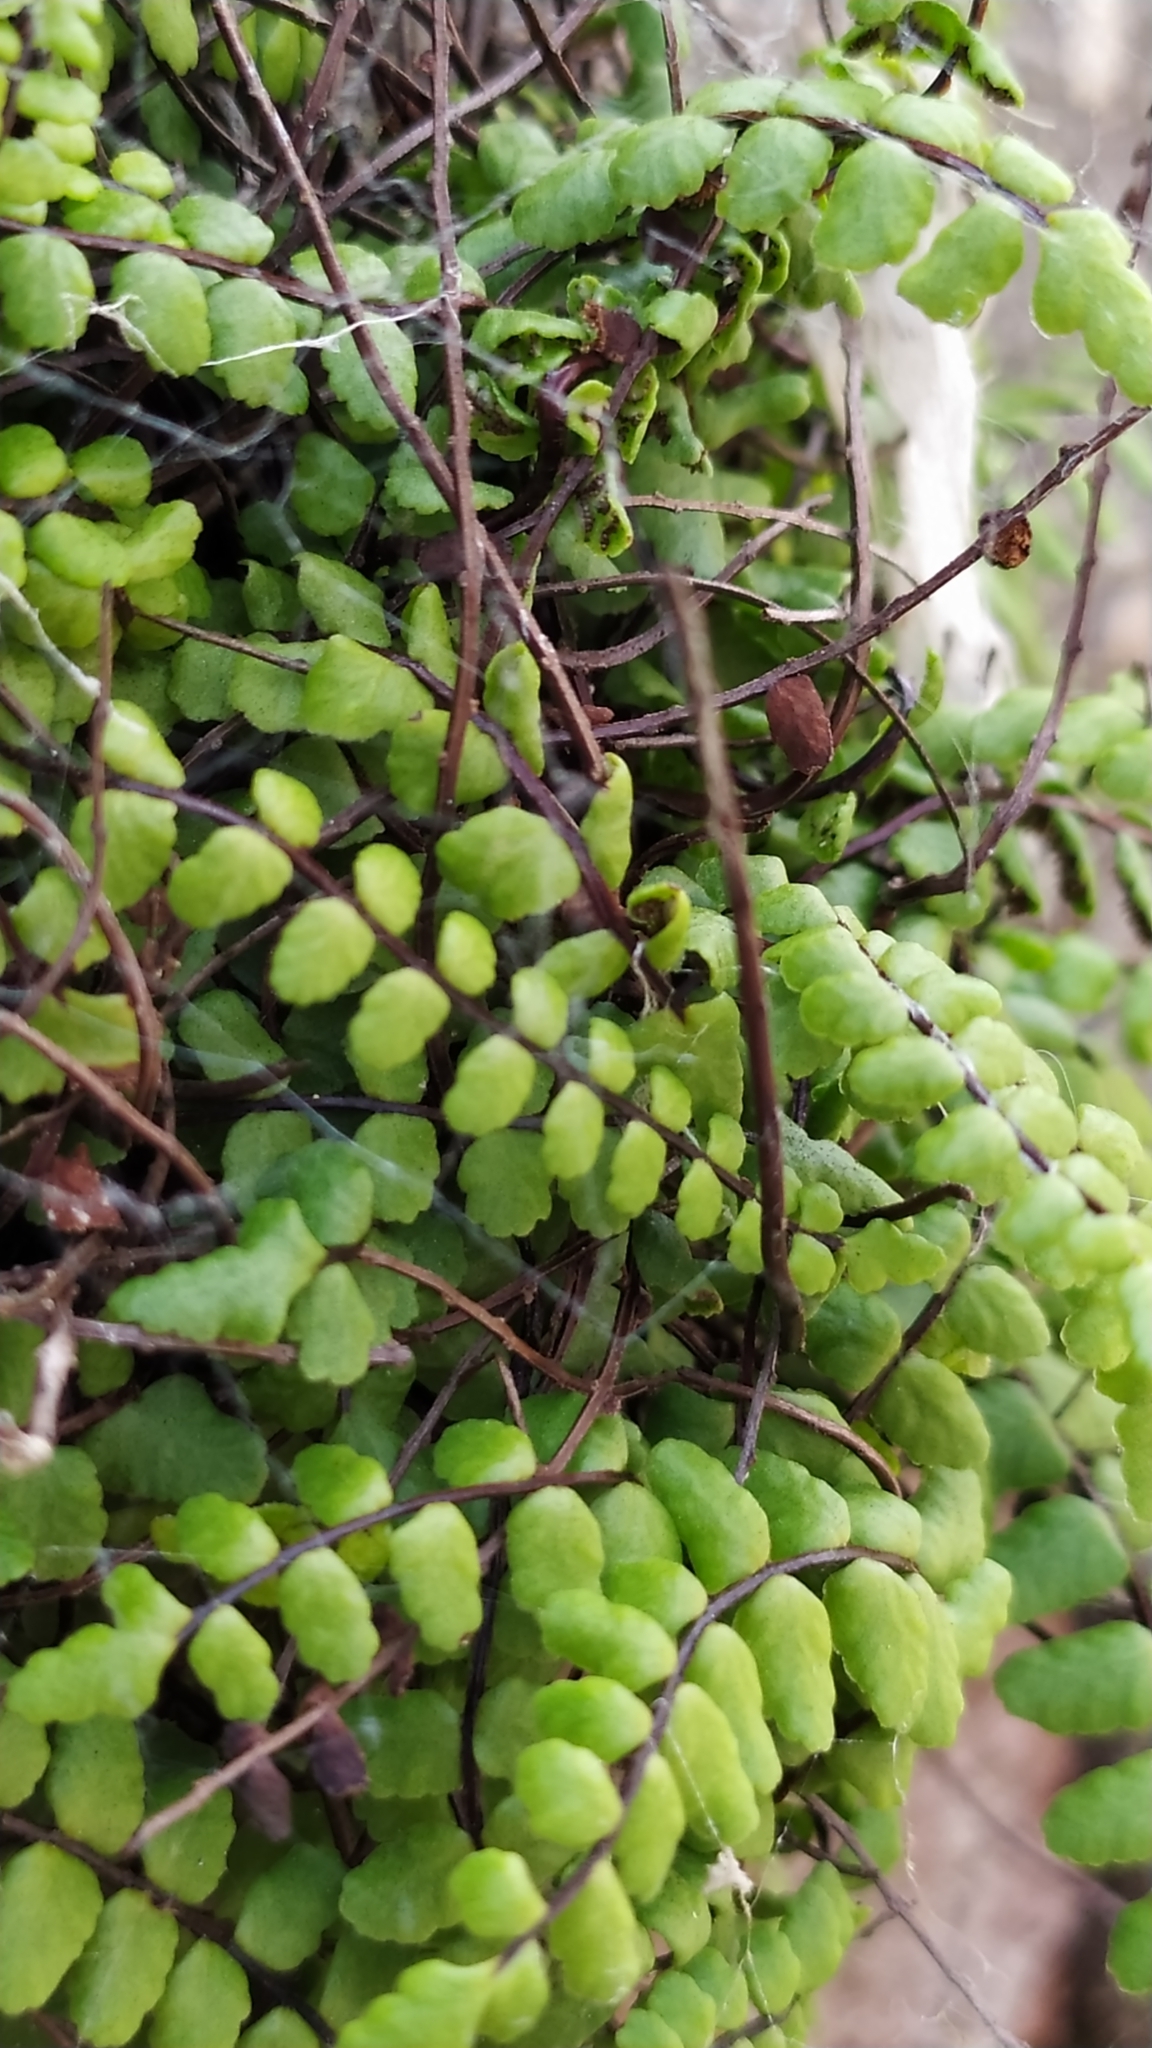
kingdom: Plantae
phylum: Tracheophyta
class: Polypodiopsida
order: Polypodiales
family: Aspleniaceae
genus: Asplenium
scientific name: Asplenium trichomanes
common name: Maidenhair spleenwort
